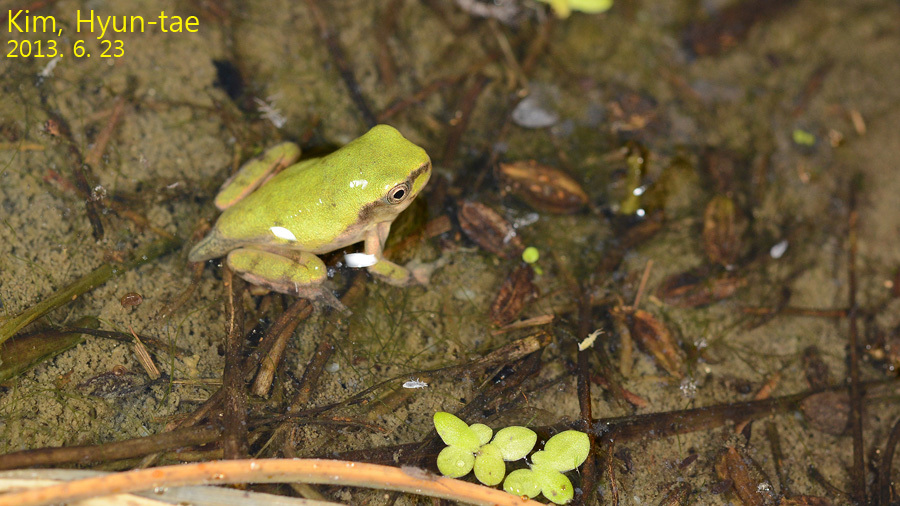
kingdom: Animalia
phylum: Chordata
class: Amphibia
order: Anura
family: Hylidae
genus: Dryophytes
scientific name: Dryophytes immaculatus
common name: North china treefrog
